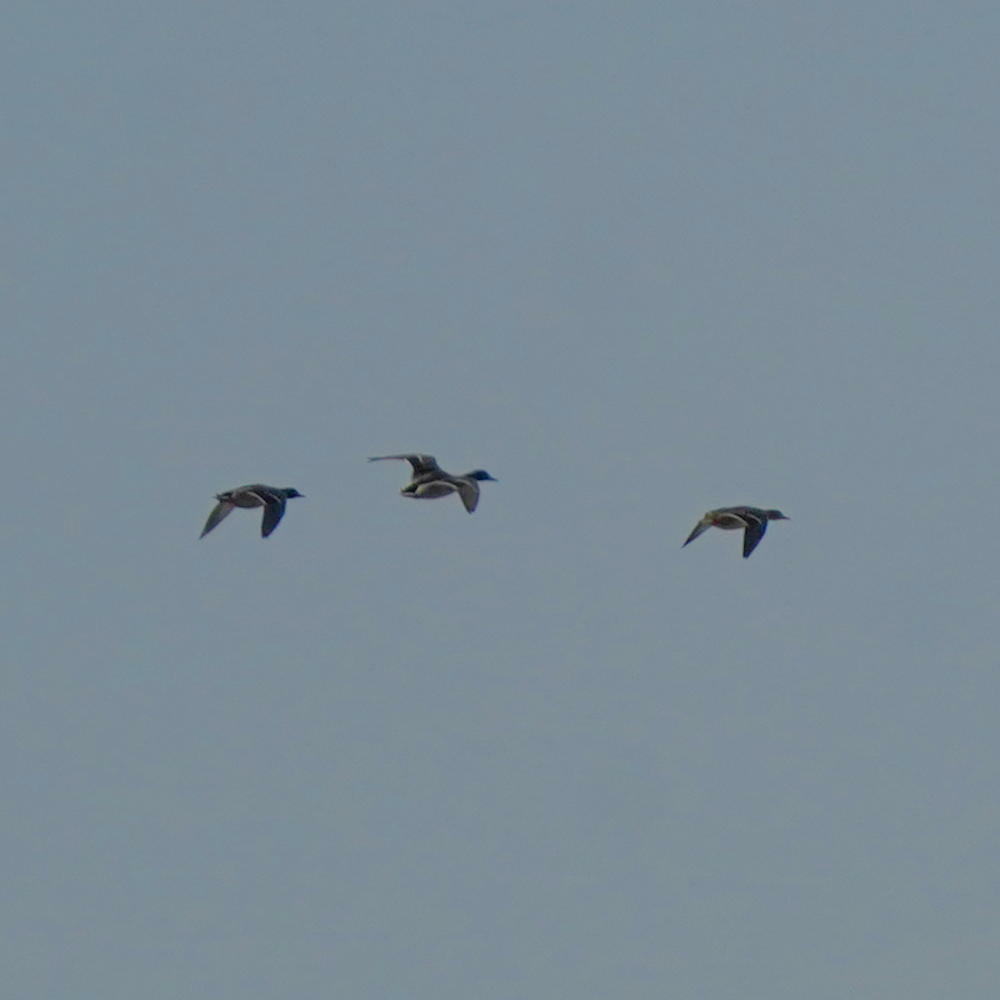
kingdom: Animalia
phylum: Chordata
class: Aves
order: Anseriformes
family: Anatidae
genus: Anas
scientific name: Anas platyrhynchos
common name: Mallard
